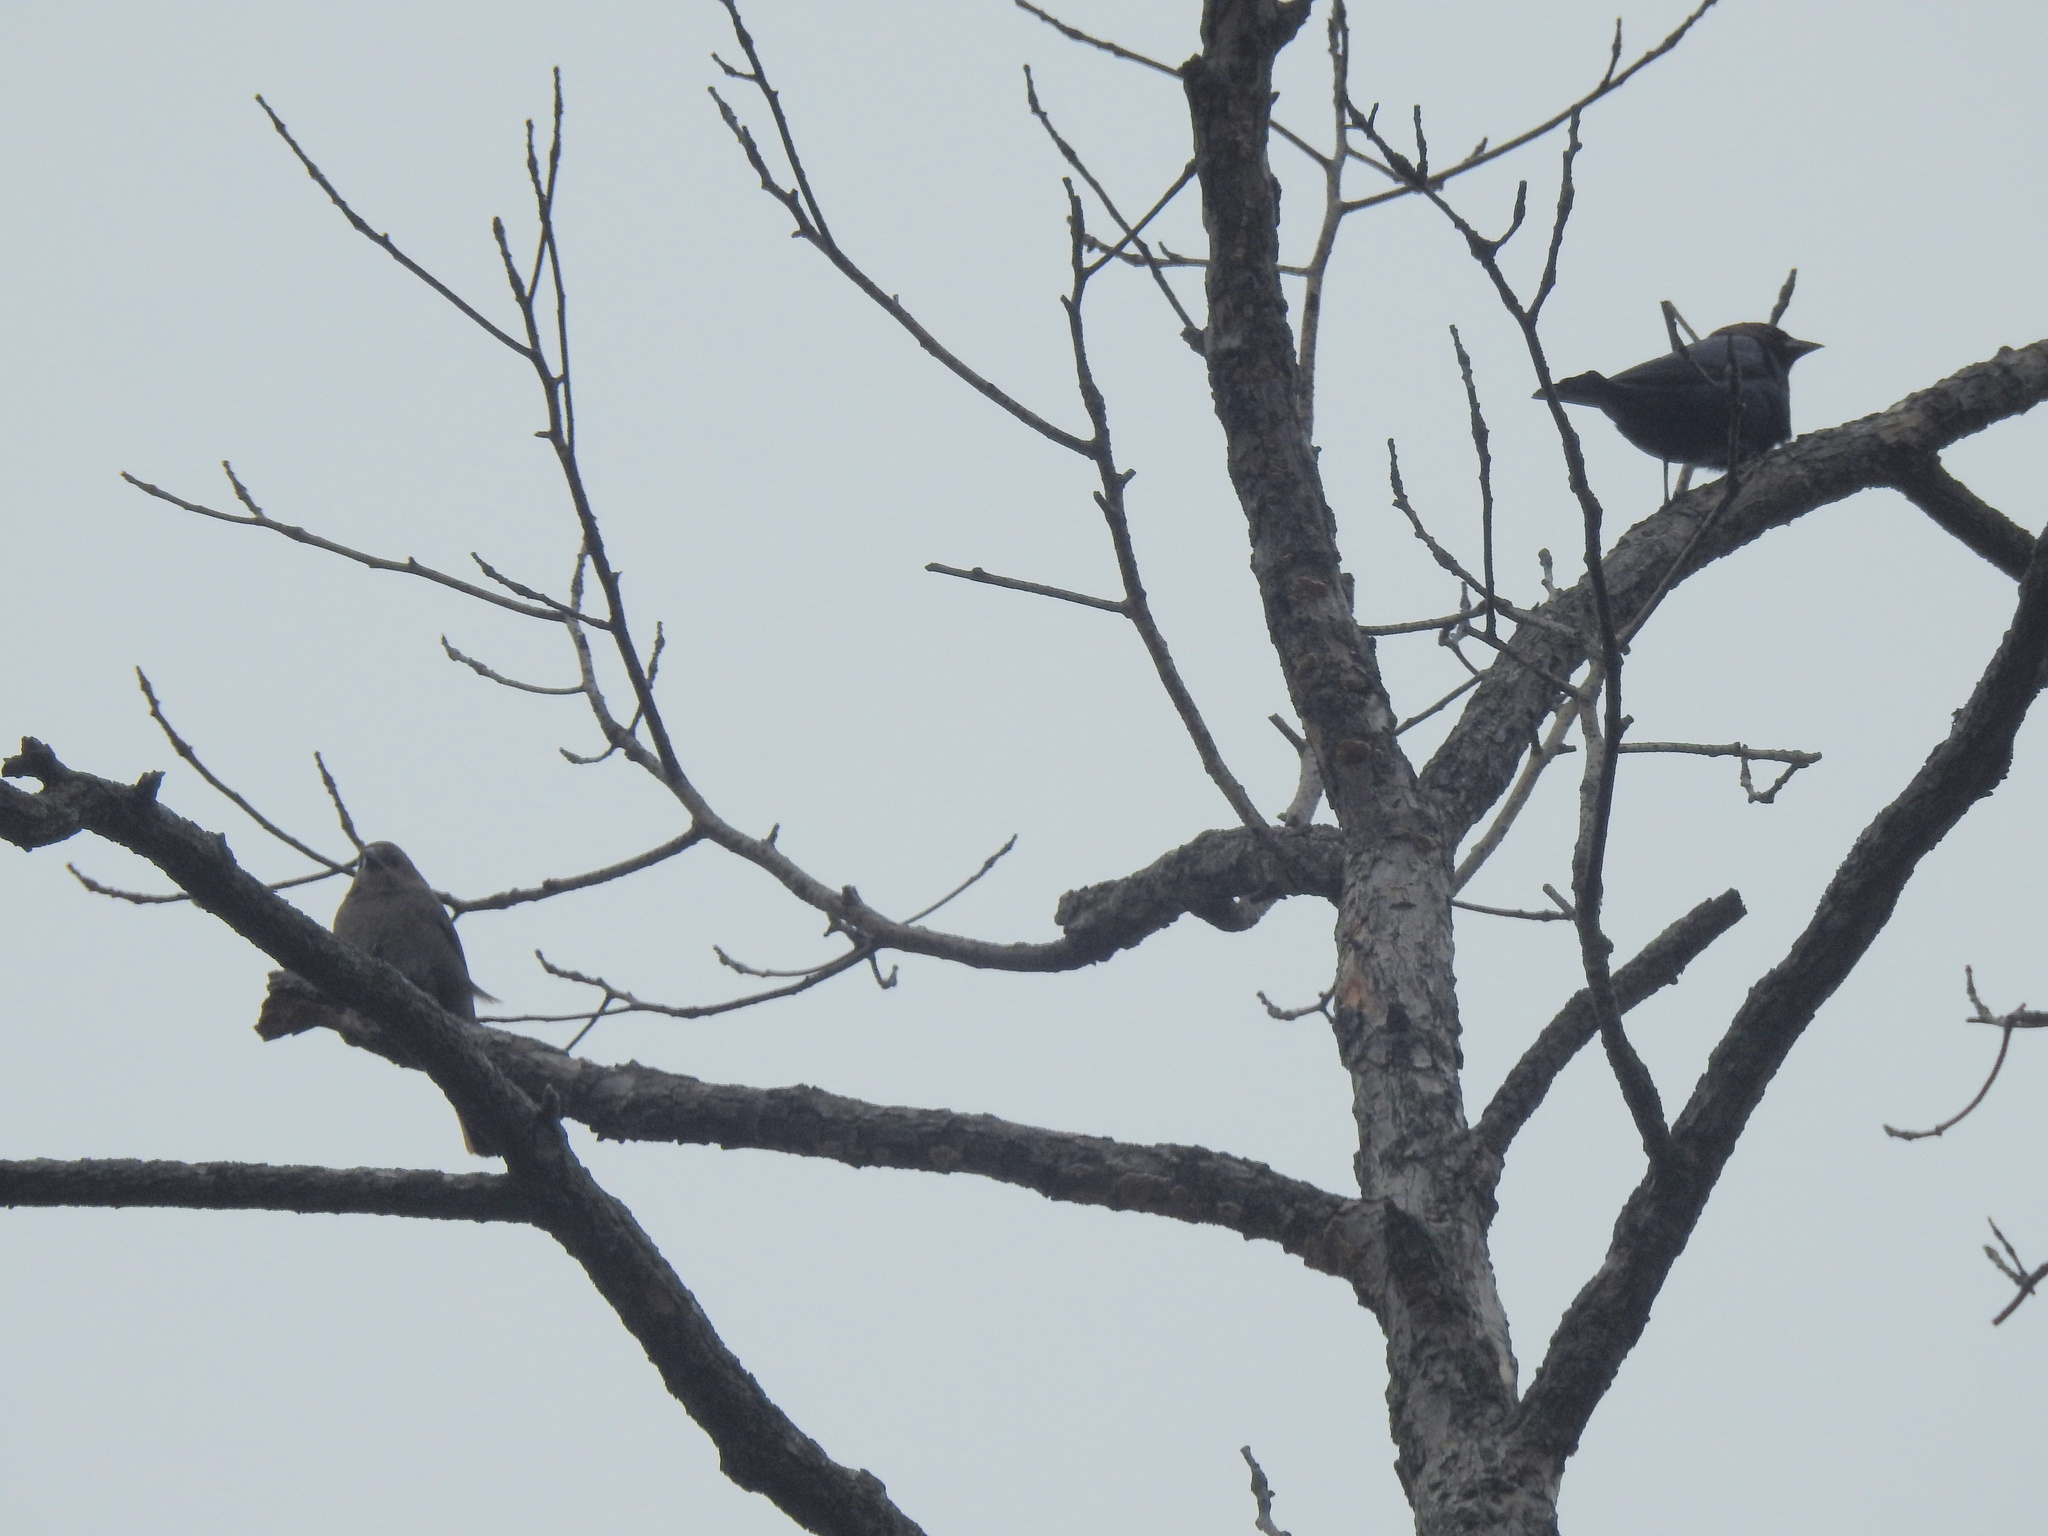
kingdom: Animalia
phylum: Chordata
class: Aves
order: Passeriformes
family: Icteridae
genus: Molothrus
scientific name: Molothrus ater
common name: Brown-headed cowbird
